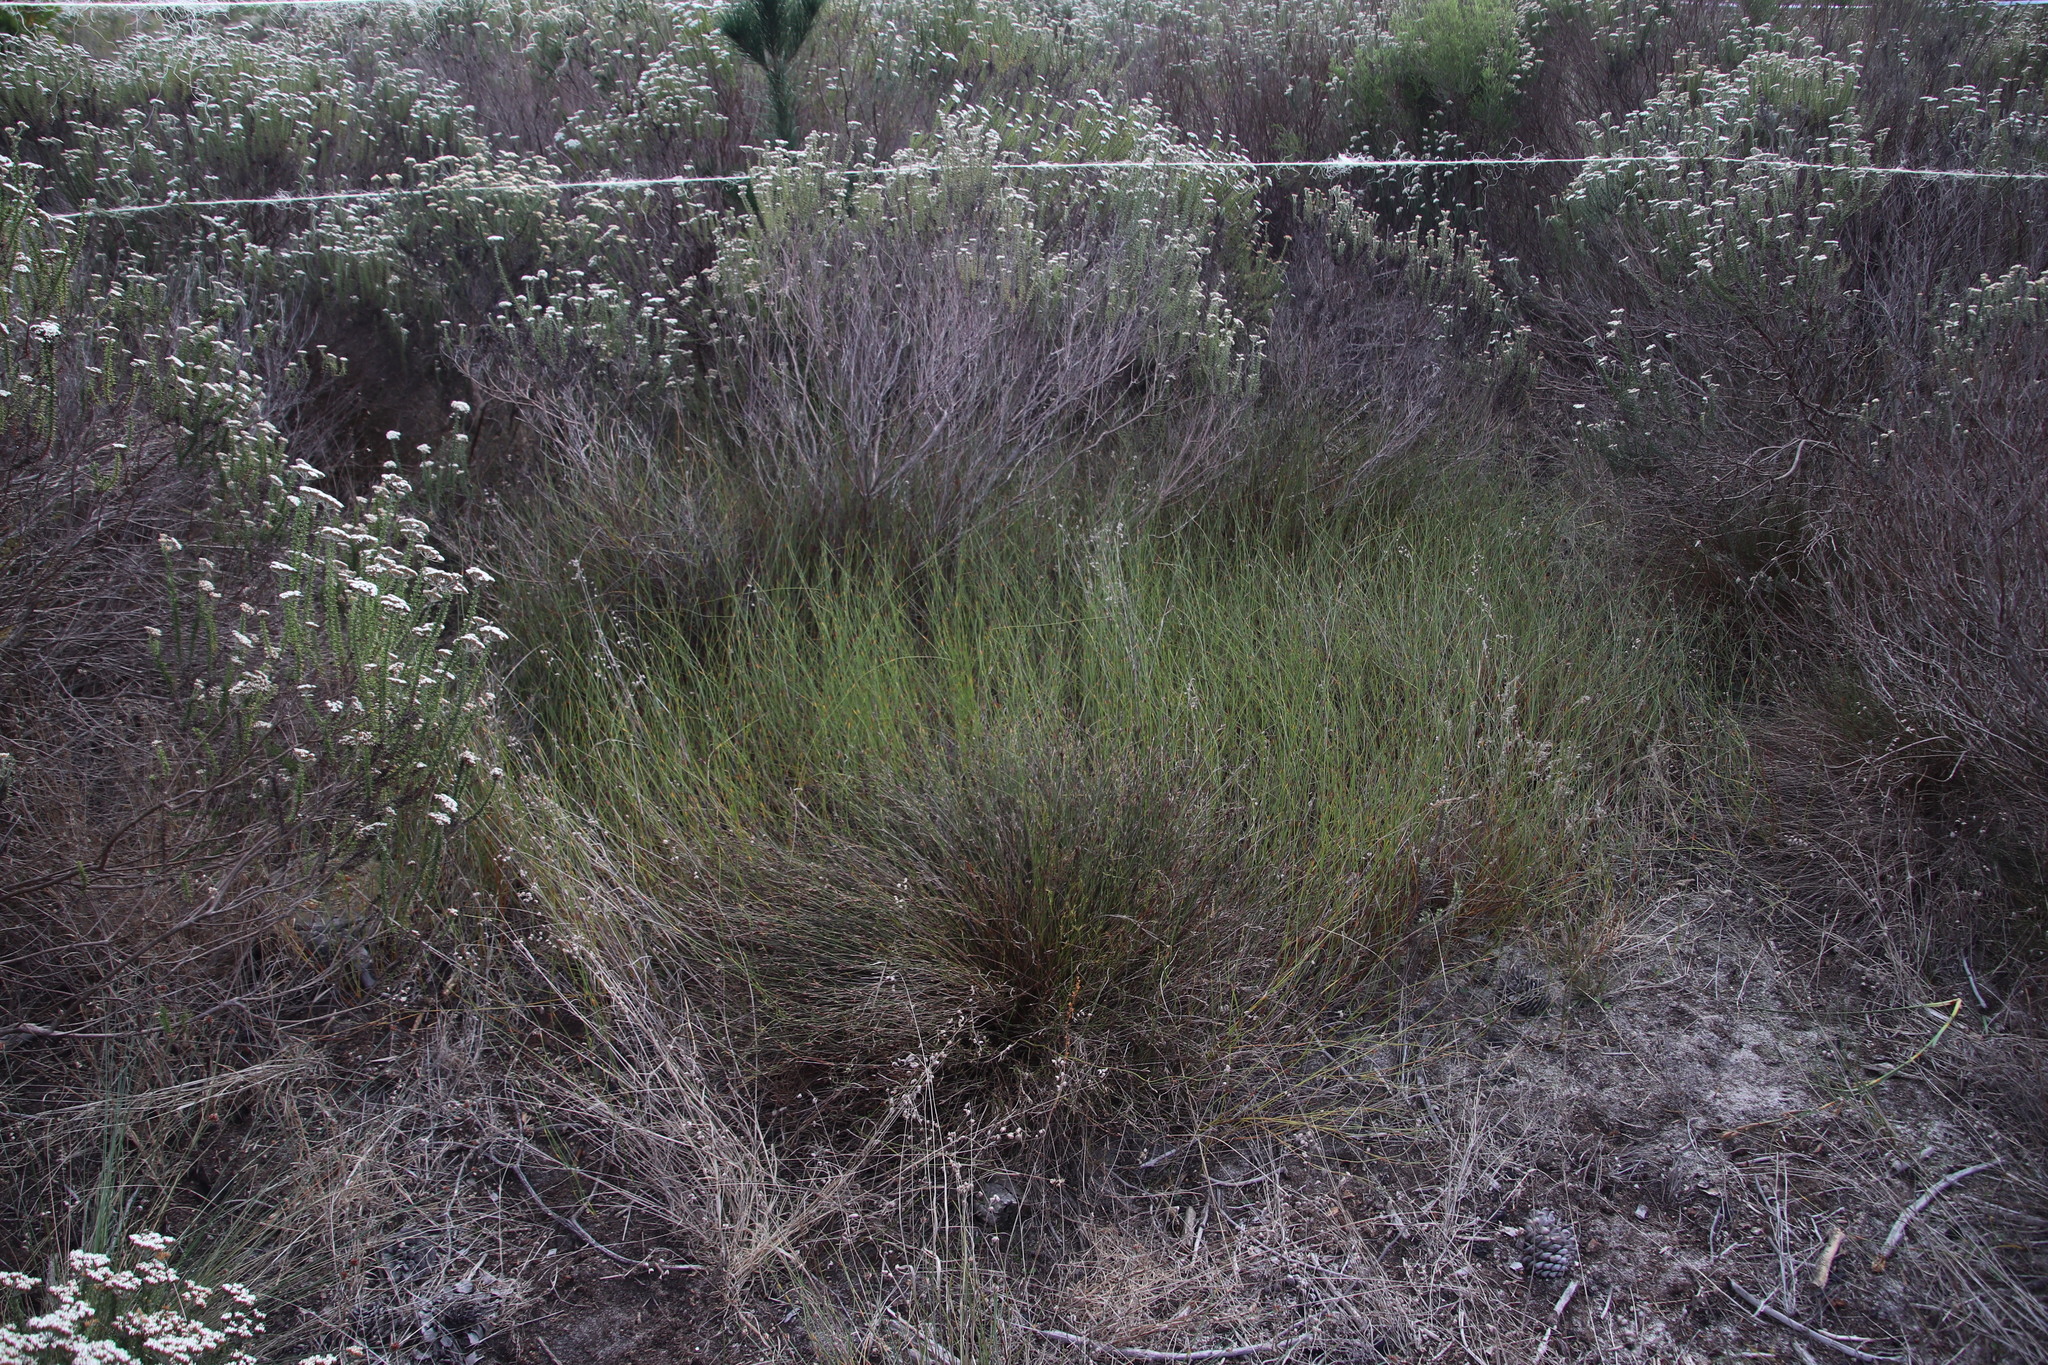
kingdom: Plantae
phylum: Tracheophyta
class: Liliopsida
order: Poales
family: Restionaceae
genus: Restio
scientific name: Restio capensis
